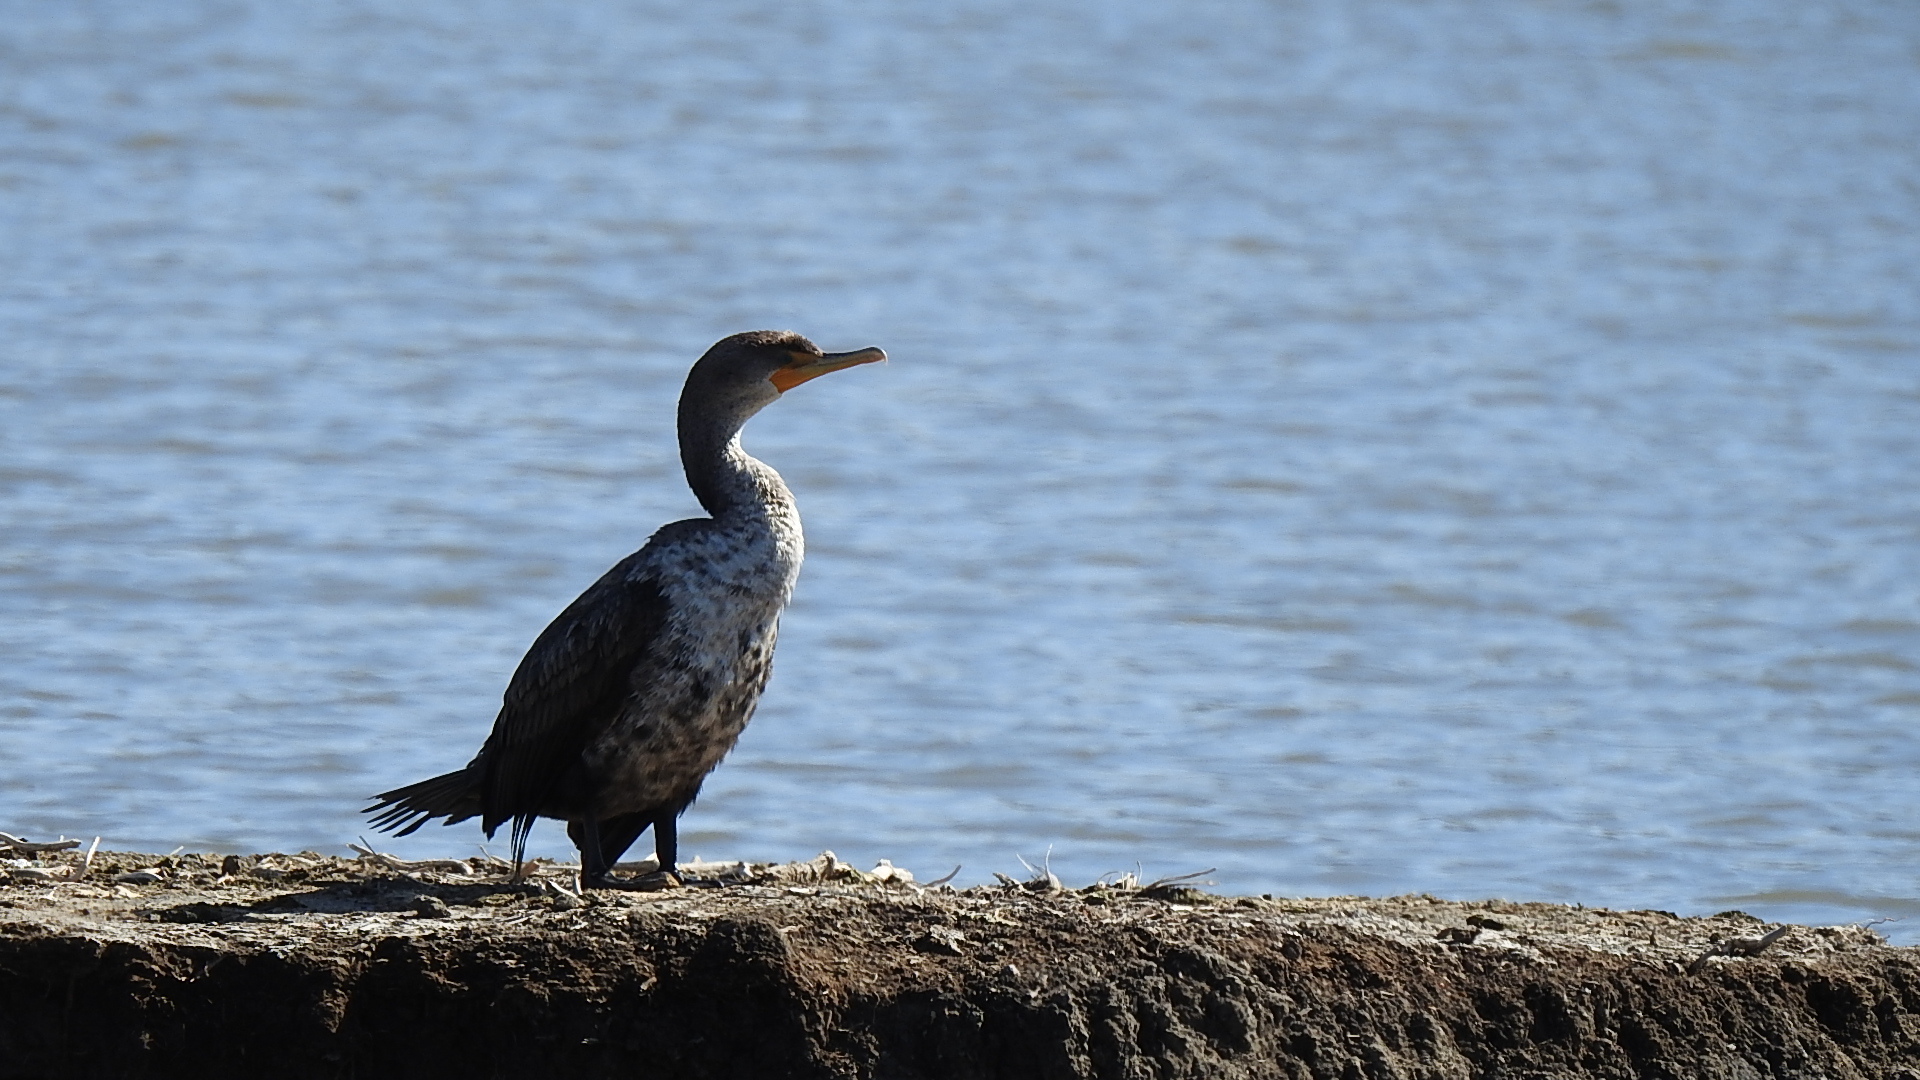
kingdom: Animalia
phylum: Chordata
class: Aves
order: Suliformes
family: Phalacrocoracidae
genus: Phalacrocorax
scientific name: Phalacrocorax auritus
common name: Double-crested cormorant
